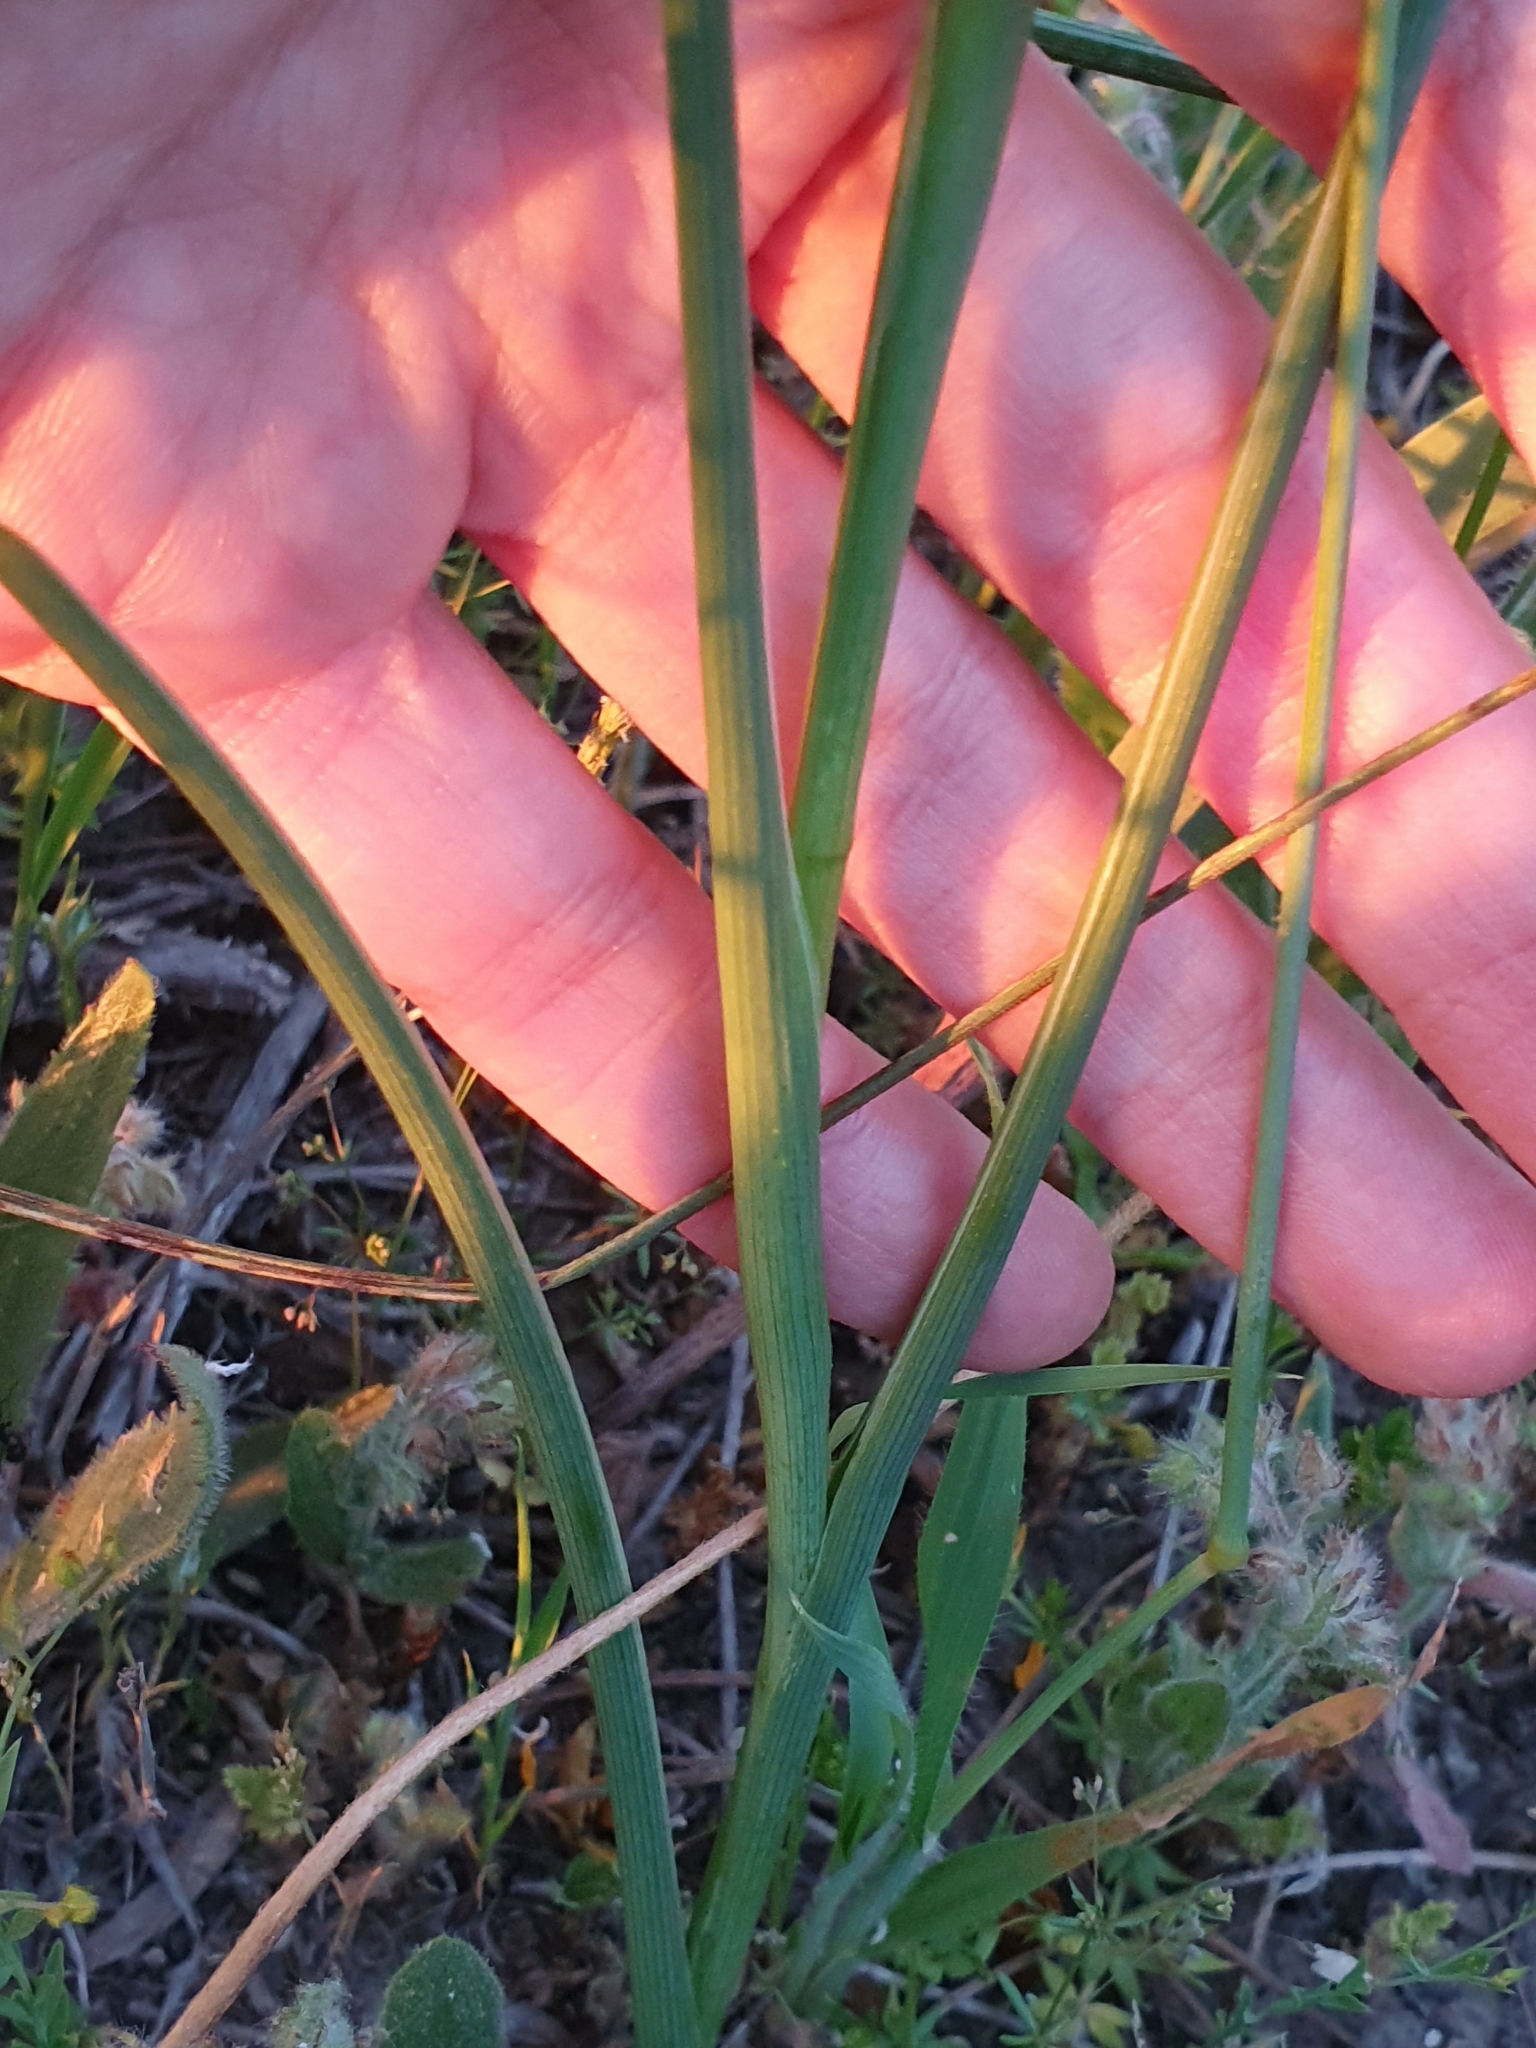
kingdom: Plantae
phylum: Tracheophyta
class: Liliopsida
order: Asparagales
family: Iridaceae
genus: Iris
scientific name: Iris juncea
